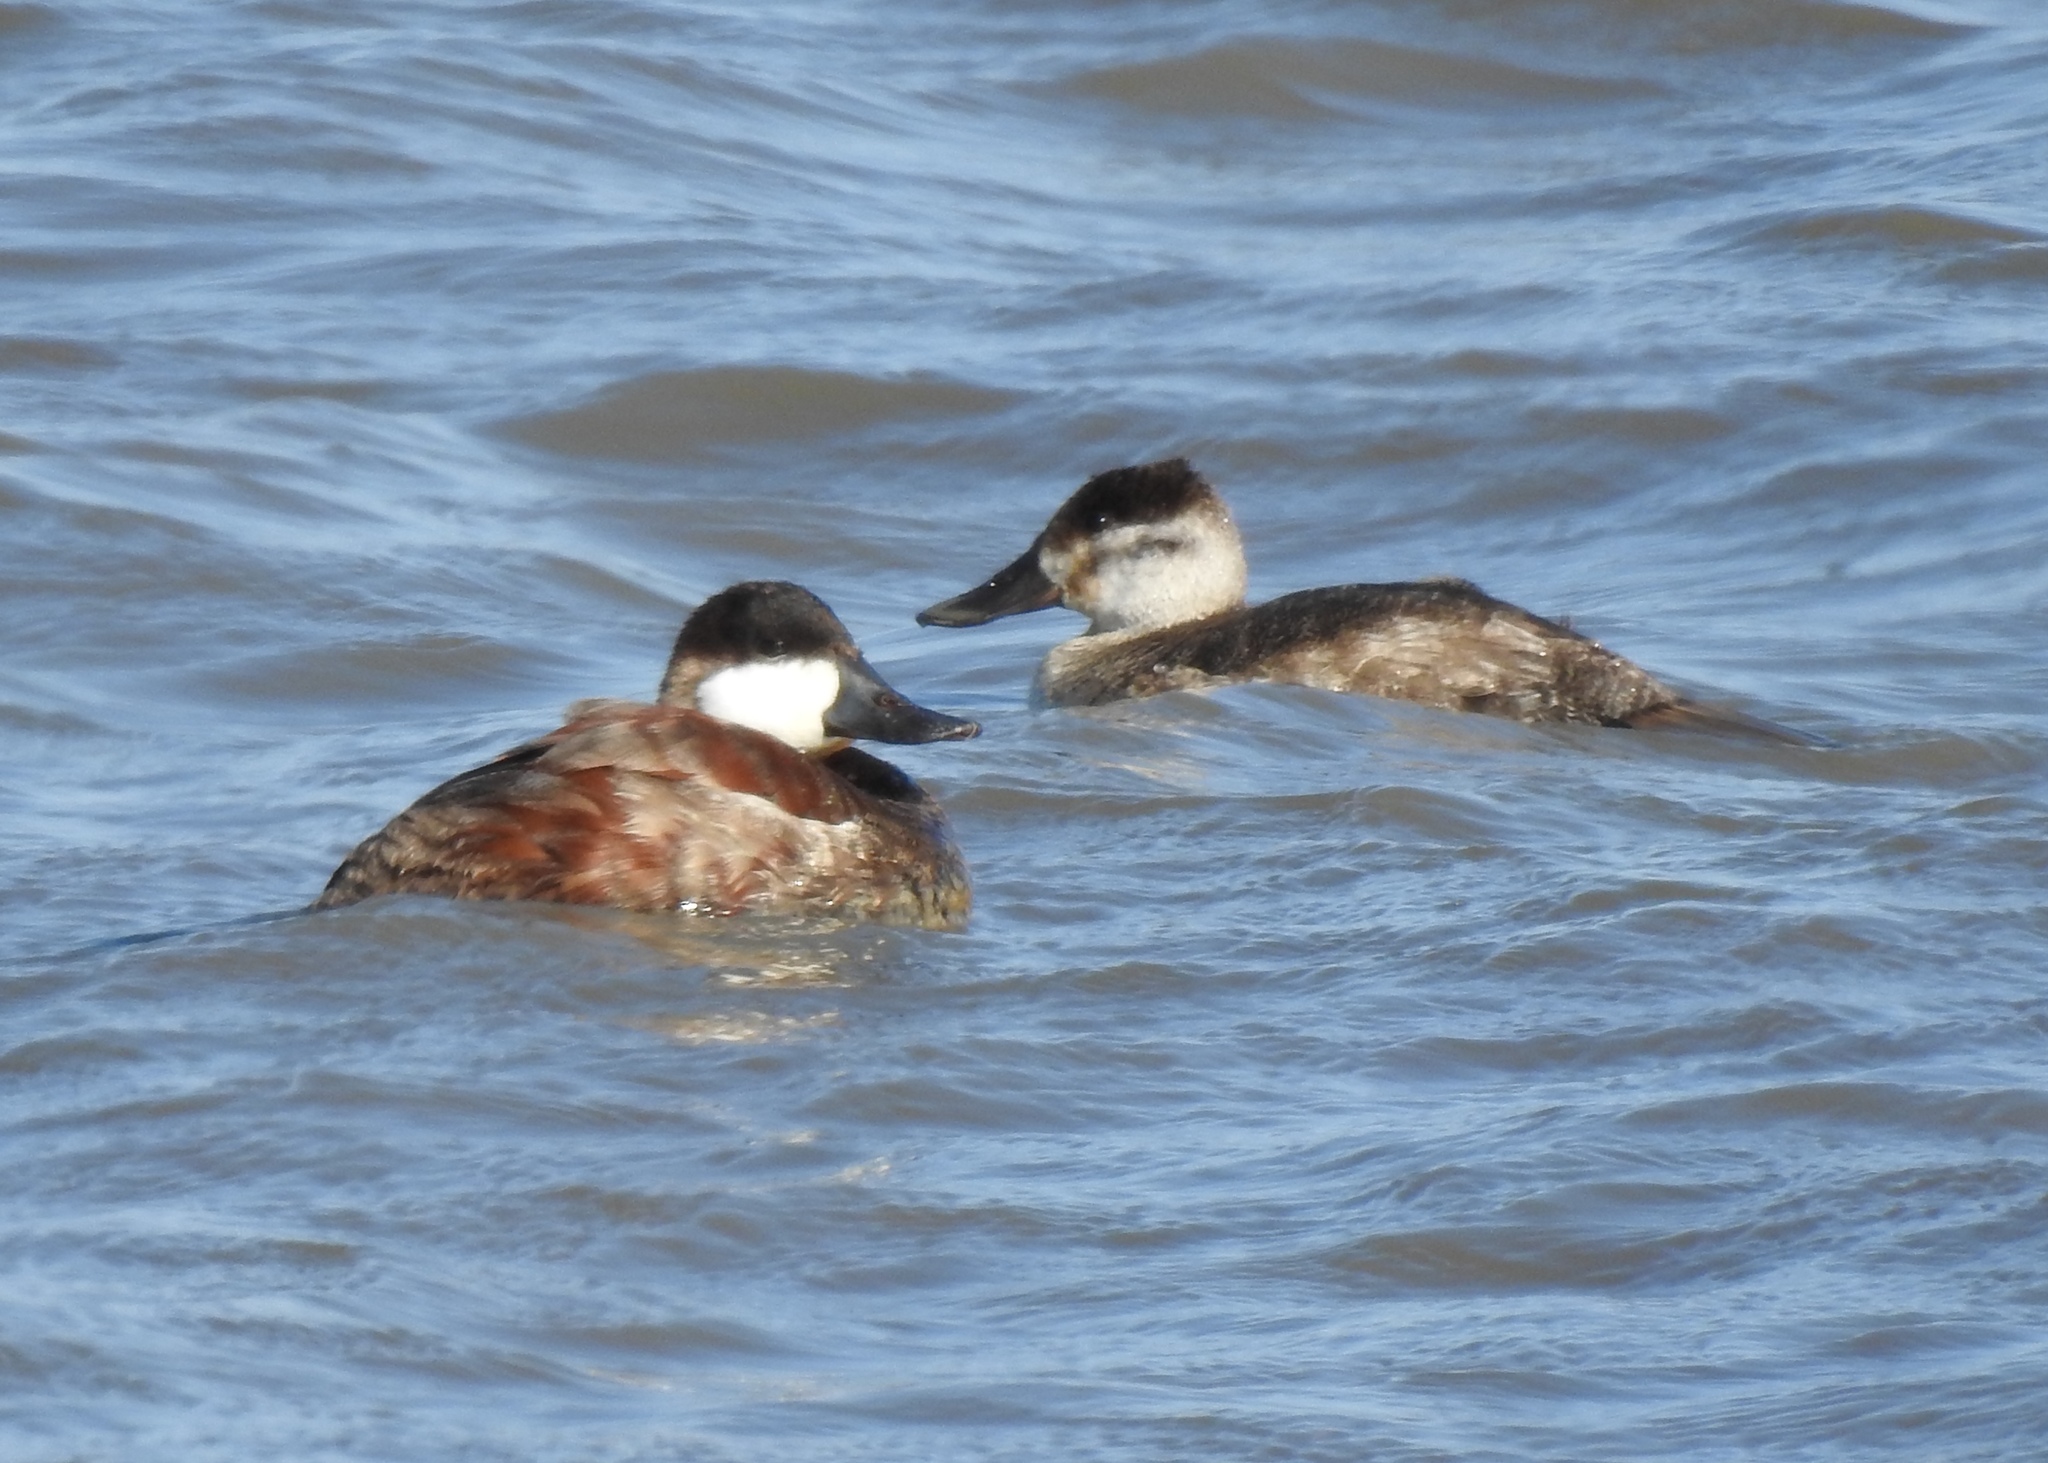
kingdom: Animalia
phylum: Chordata
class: Aves
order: Anseriformes
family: Anatidae
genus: Oxyura
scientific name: Oxyura jamaicensis
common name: Ruddy duck
